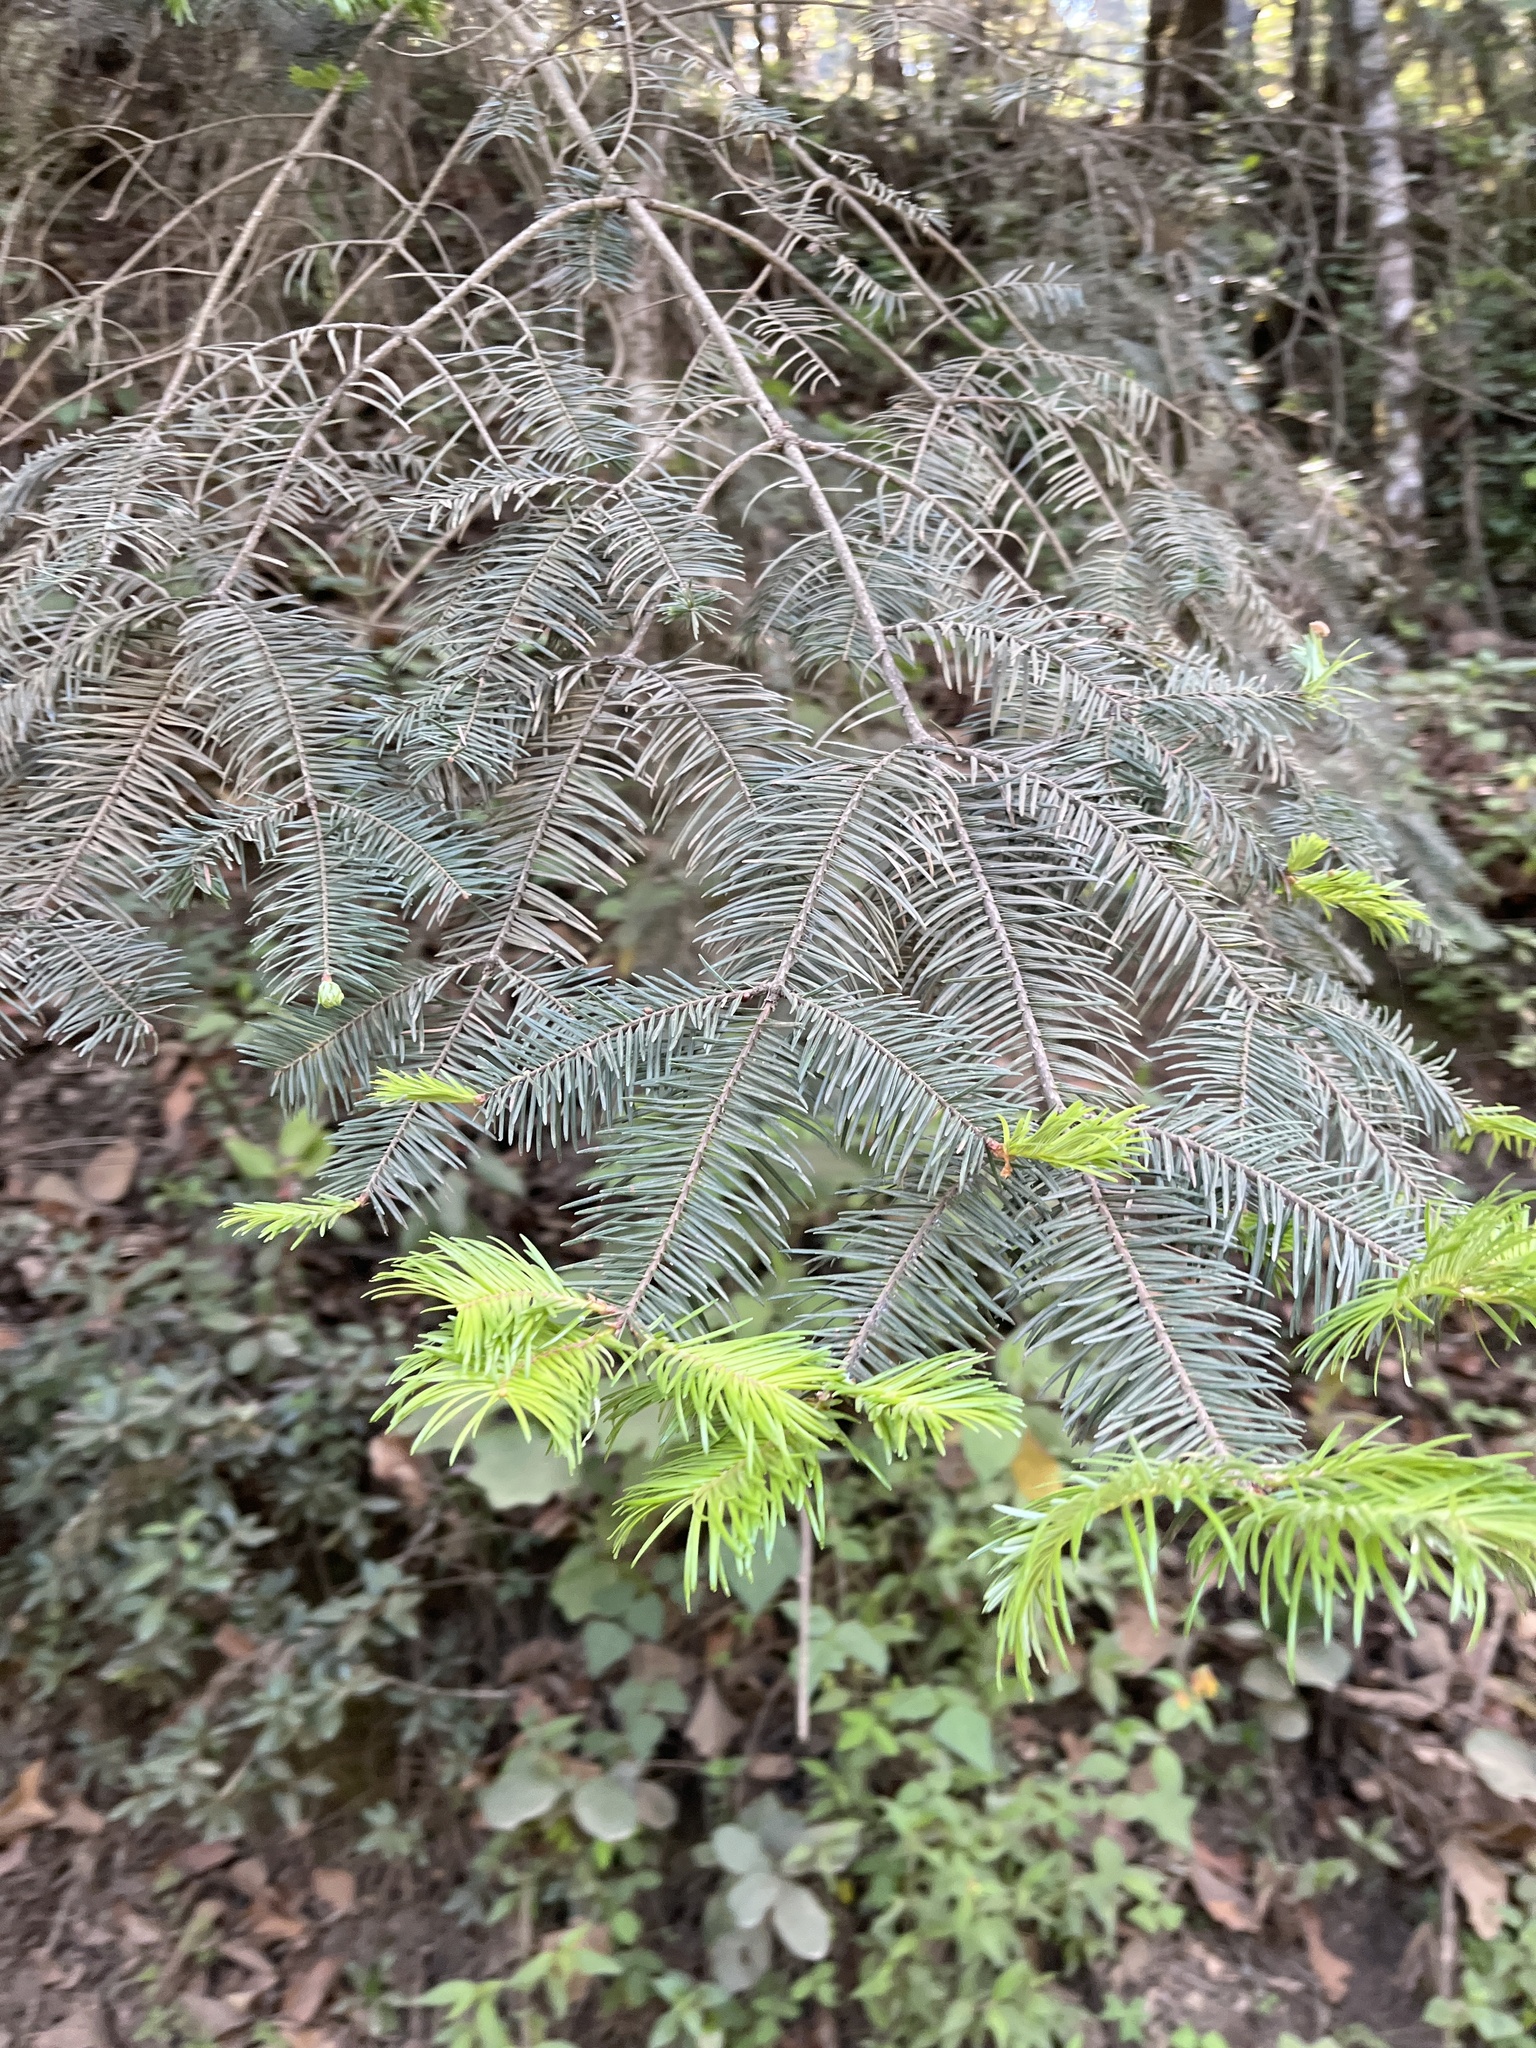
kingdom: Plantae
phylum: Tracheophyta
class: Pinopsida
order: Pinales
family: Pinaceae
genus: Abies
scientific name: Abies religiosa
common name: Sacred fir
